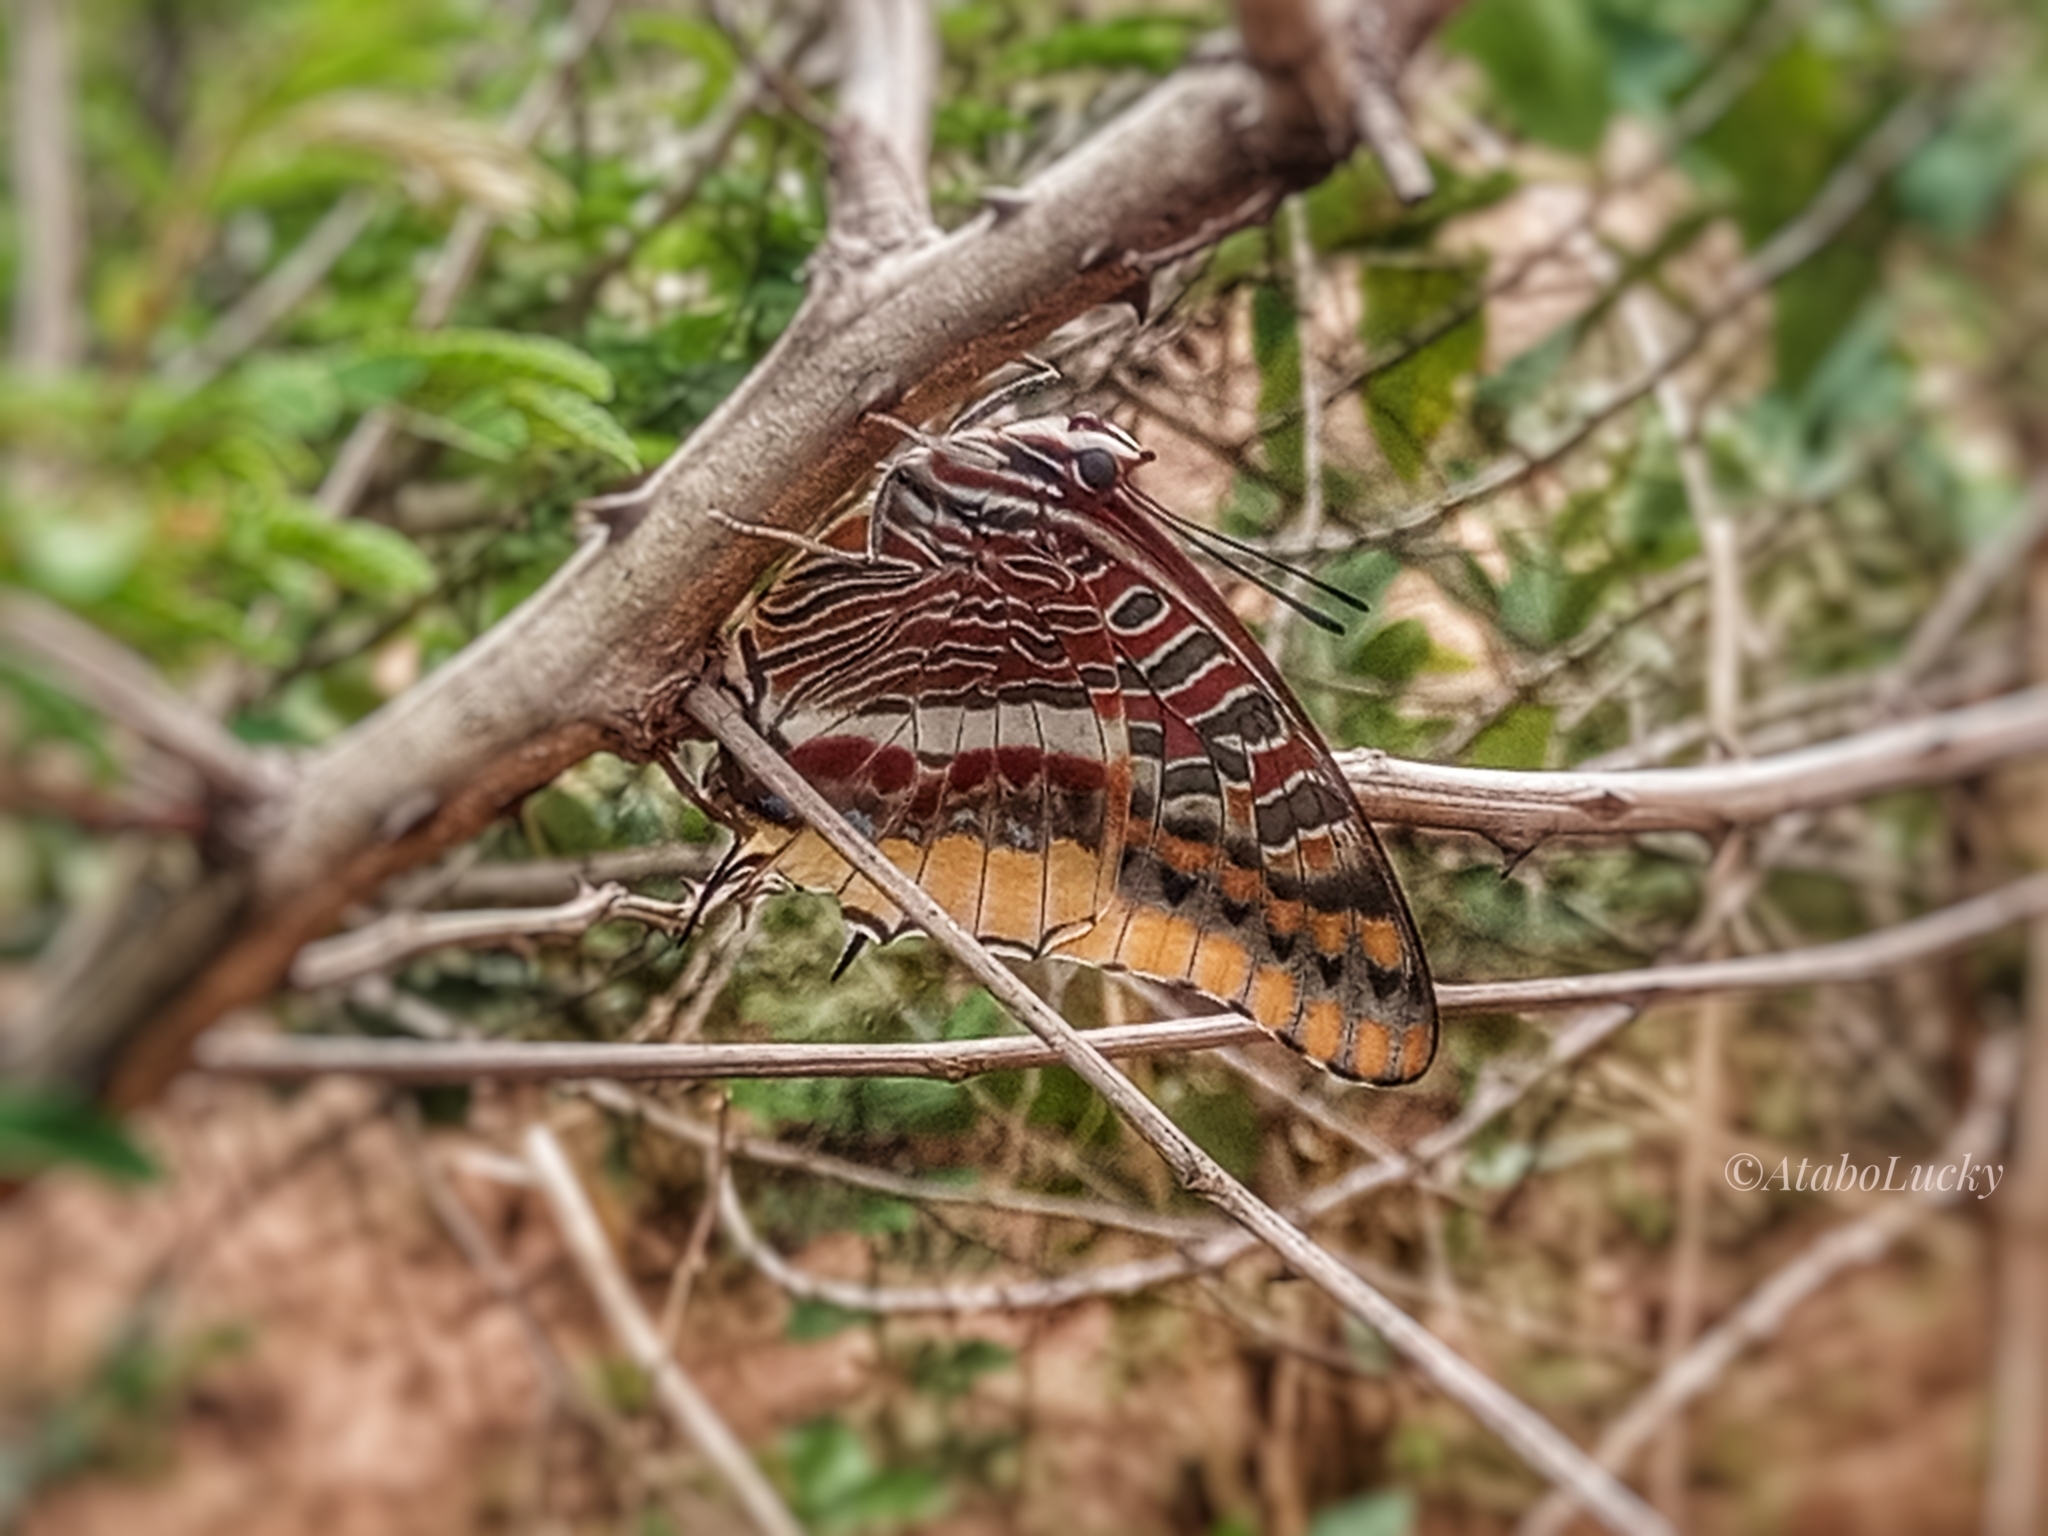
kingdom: Animalia
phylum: Arthropoda
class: Insecta
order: Lepidoptera
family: Nymphalidae
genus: Charaxes
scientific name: Charaxes jasius
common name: Two tailed pasha
